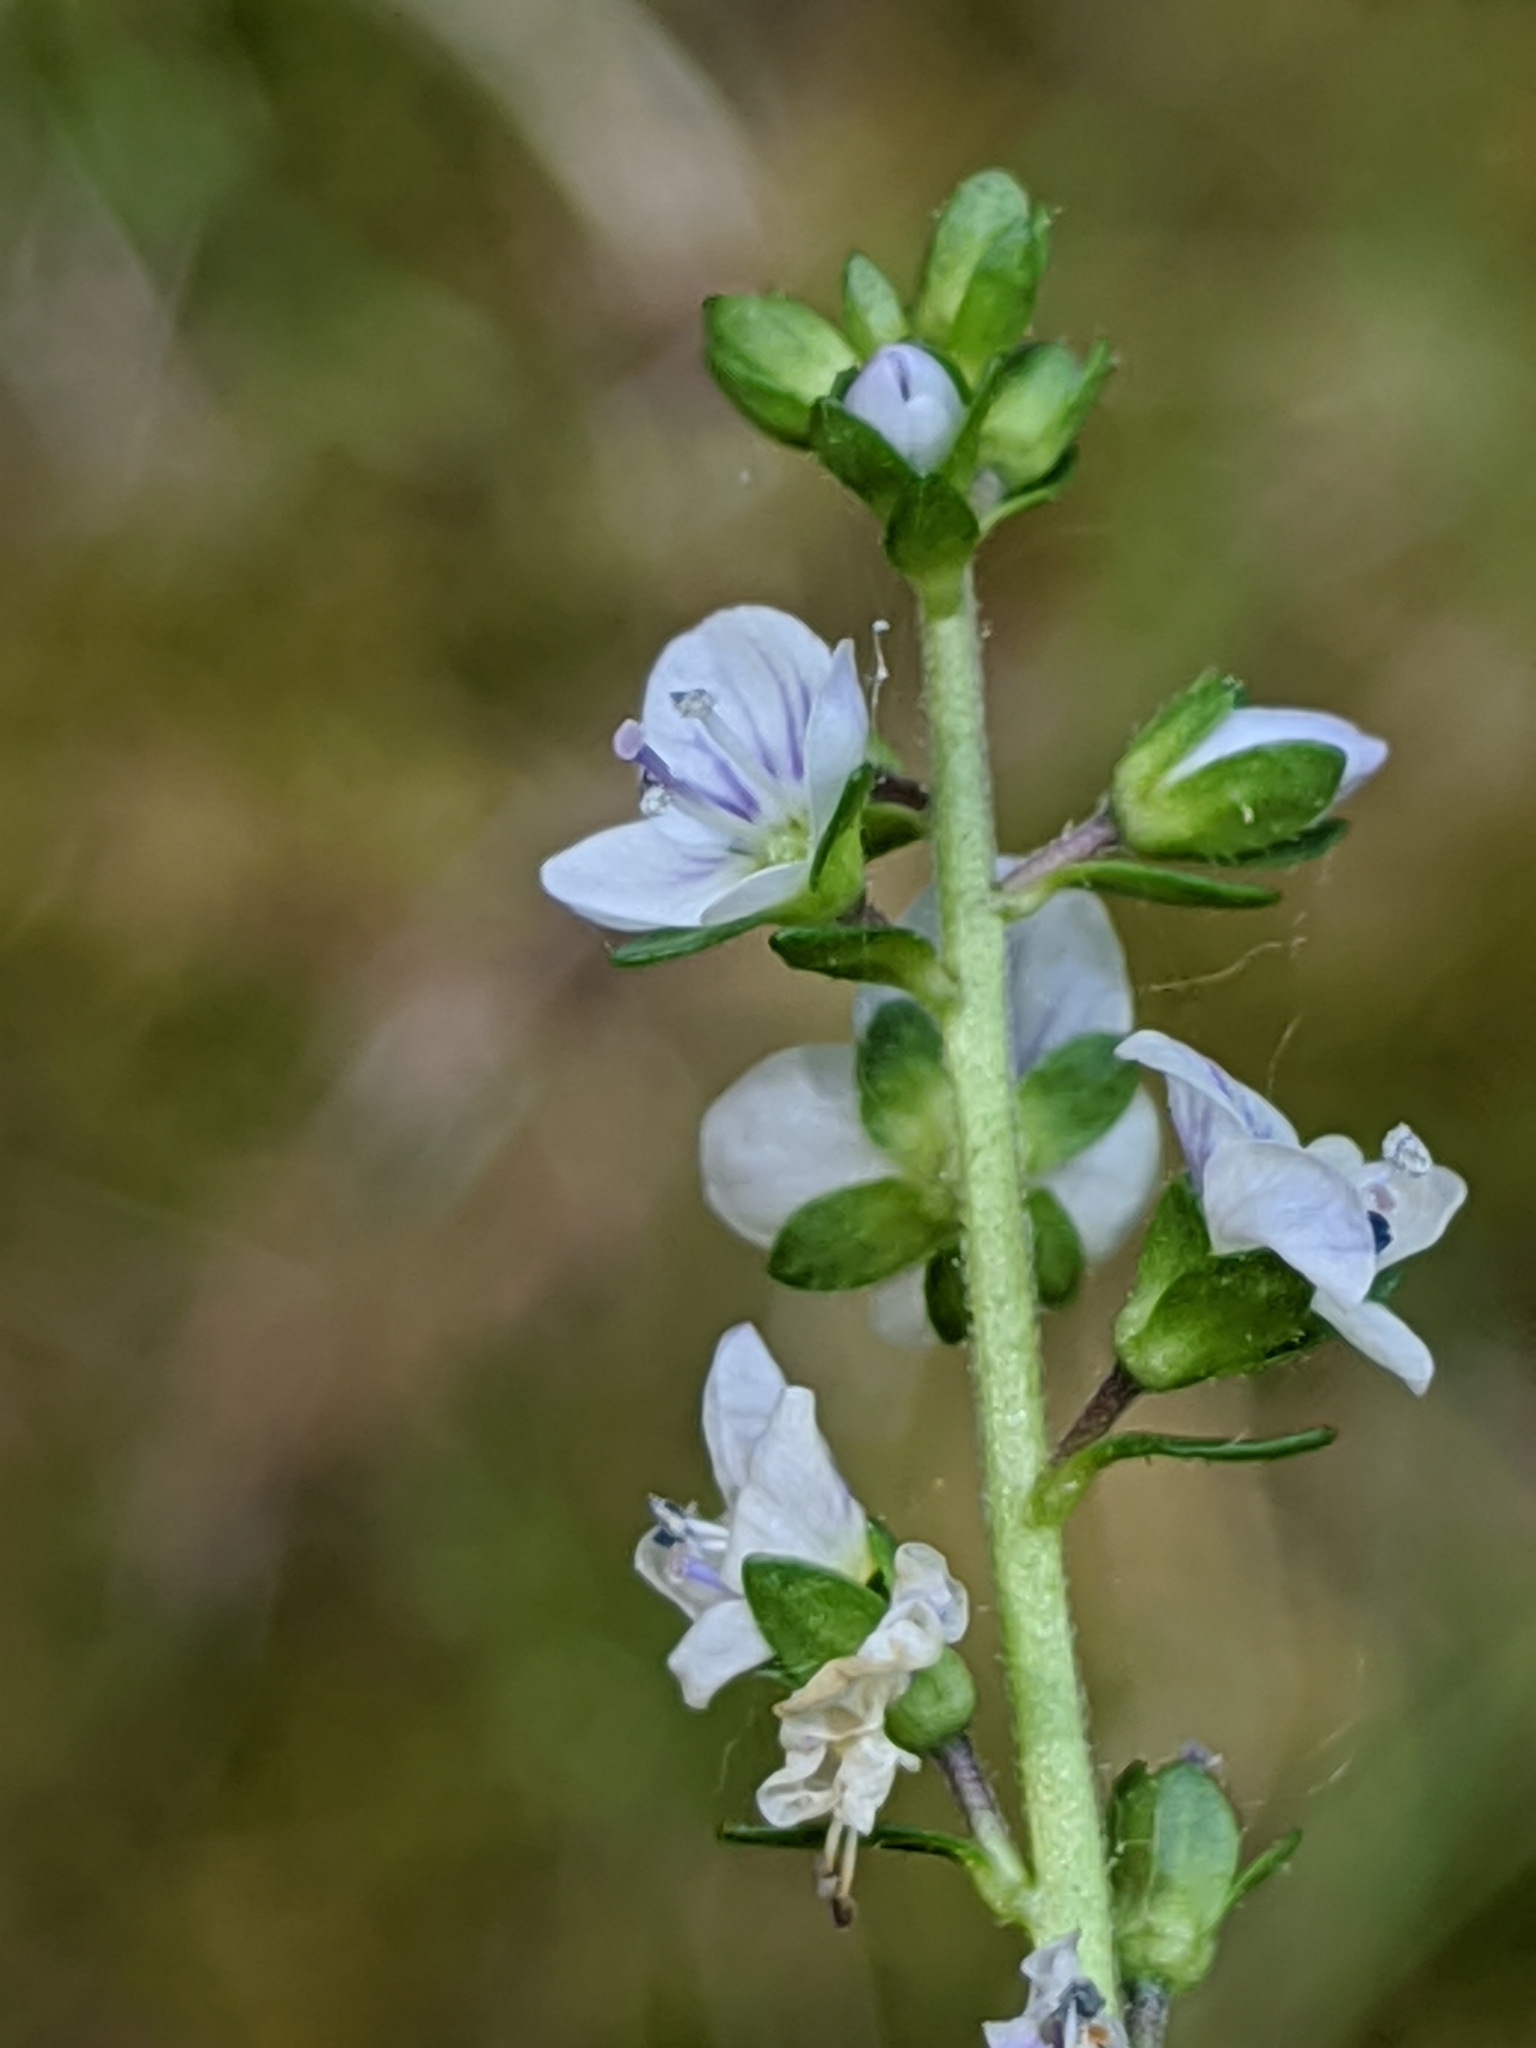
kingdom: Plantae
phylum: Tracheophyta
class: Magnoliopsida
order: Lamiales
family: Plantaginaceae
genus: Veronica
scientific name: Veronica serpyllifolia
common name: Thyme-leaved speedwell
